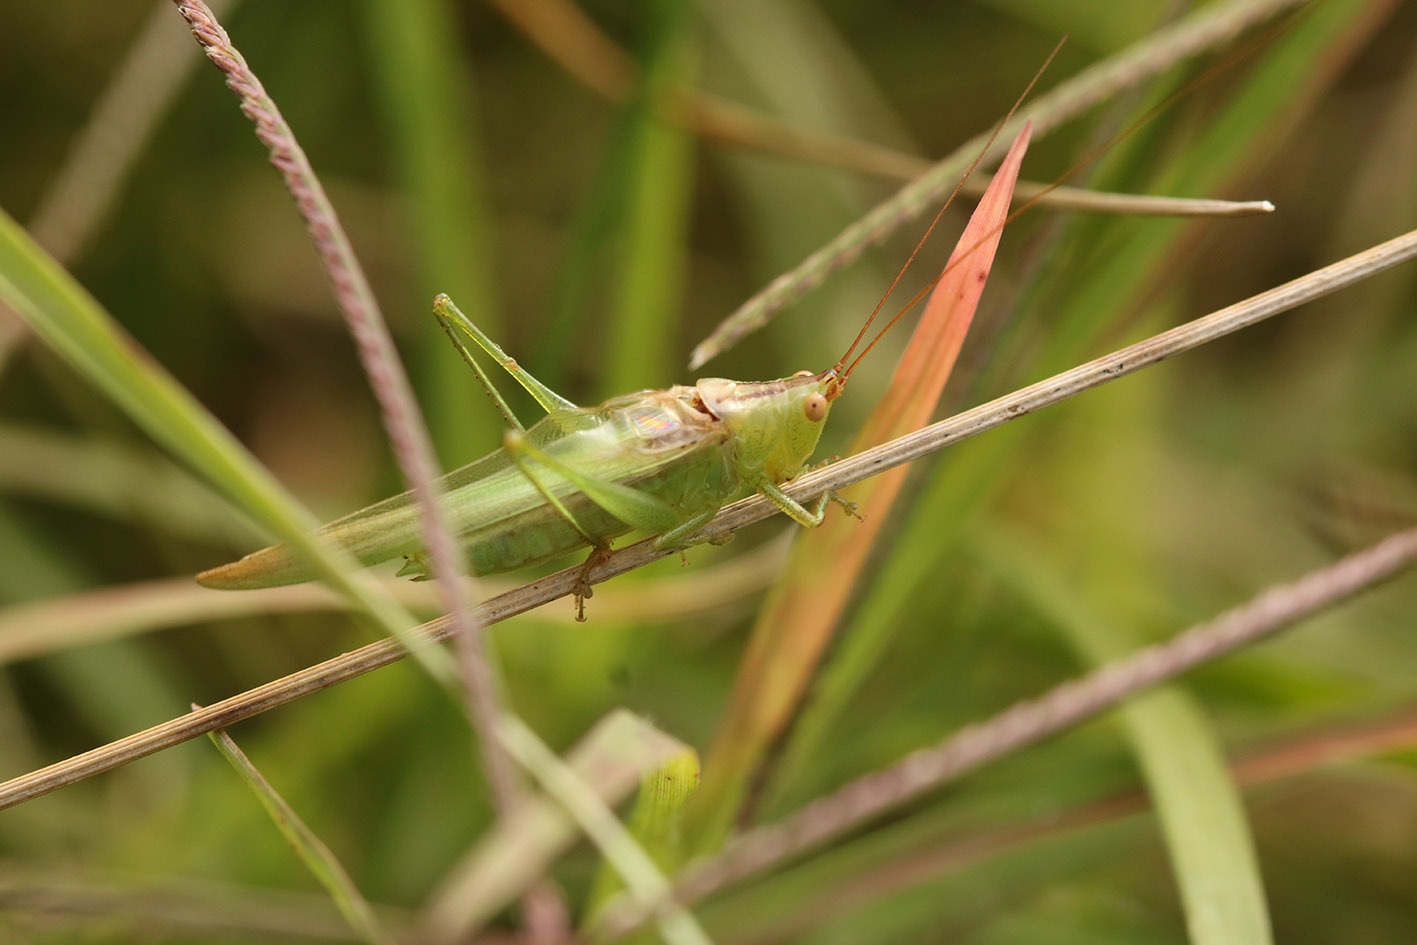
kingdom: Animalia
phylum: Arthropoda
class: Insecta
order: Orthoptera
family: Tettigoniidae
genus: Conocephalus
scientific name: Conocephalus longipes
